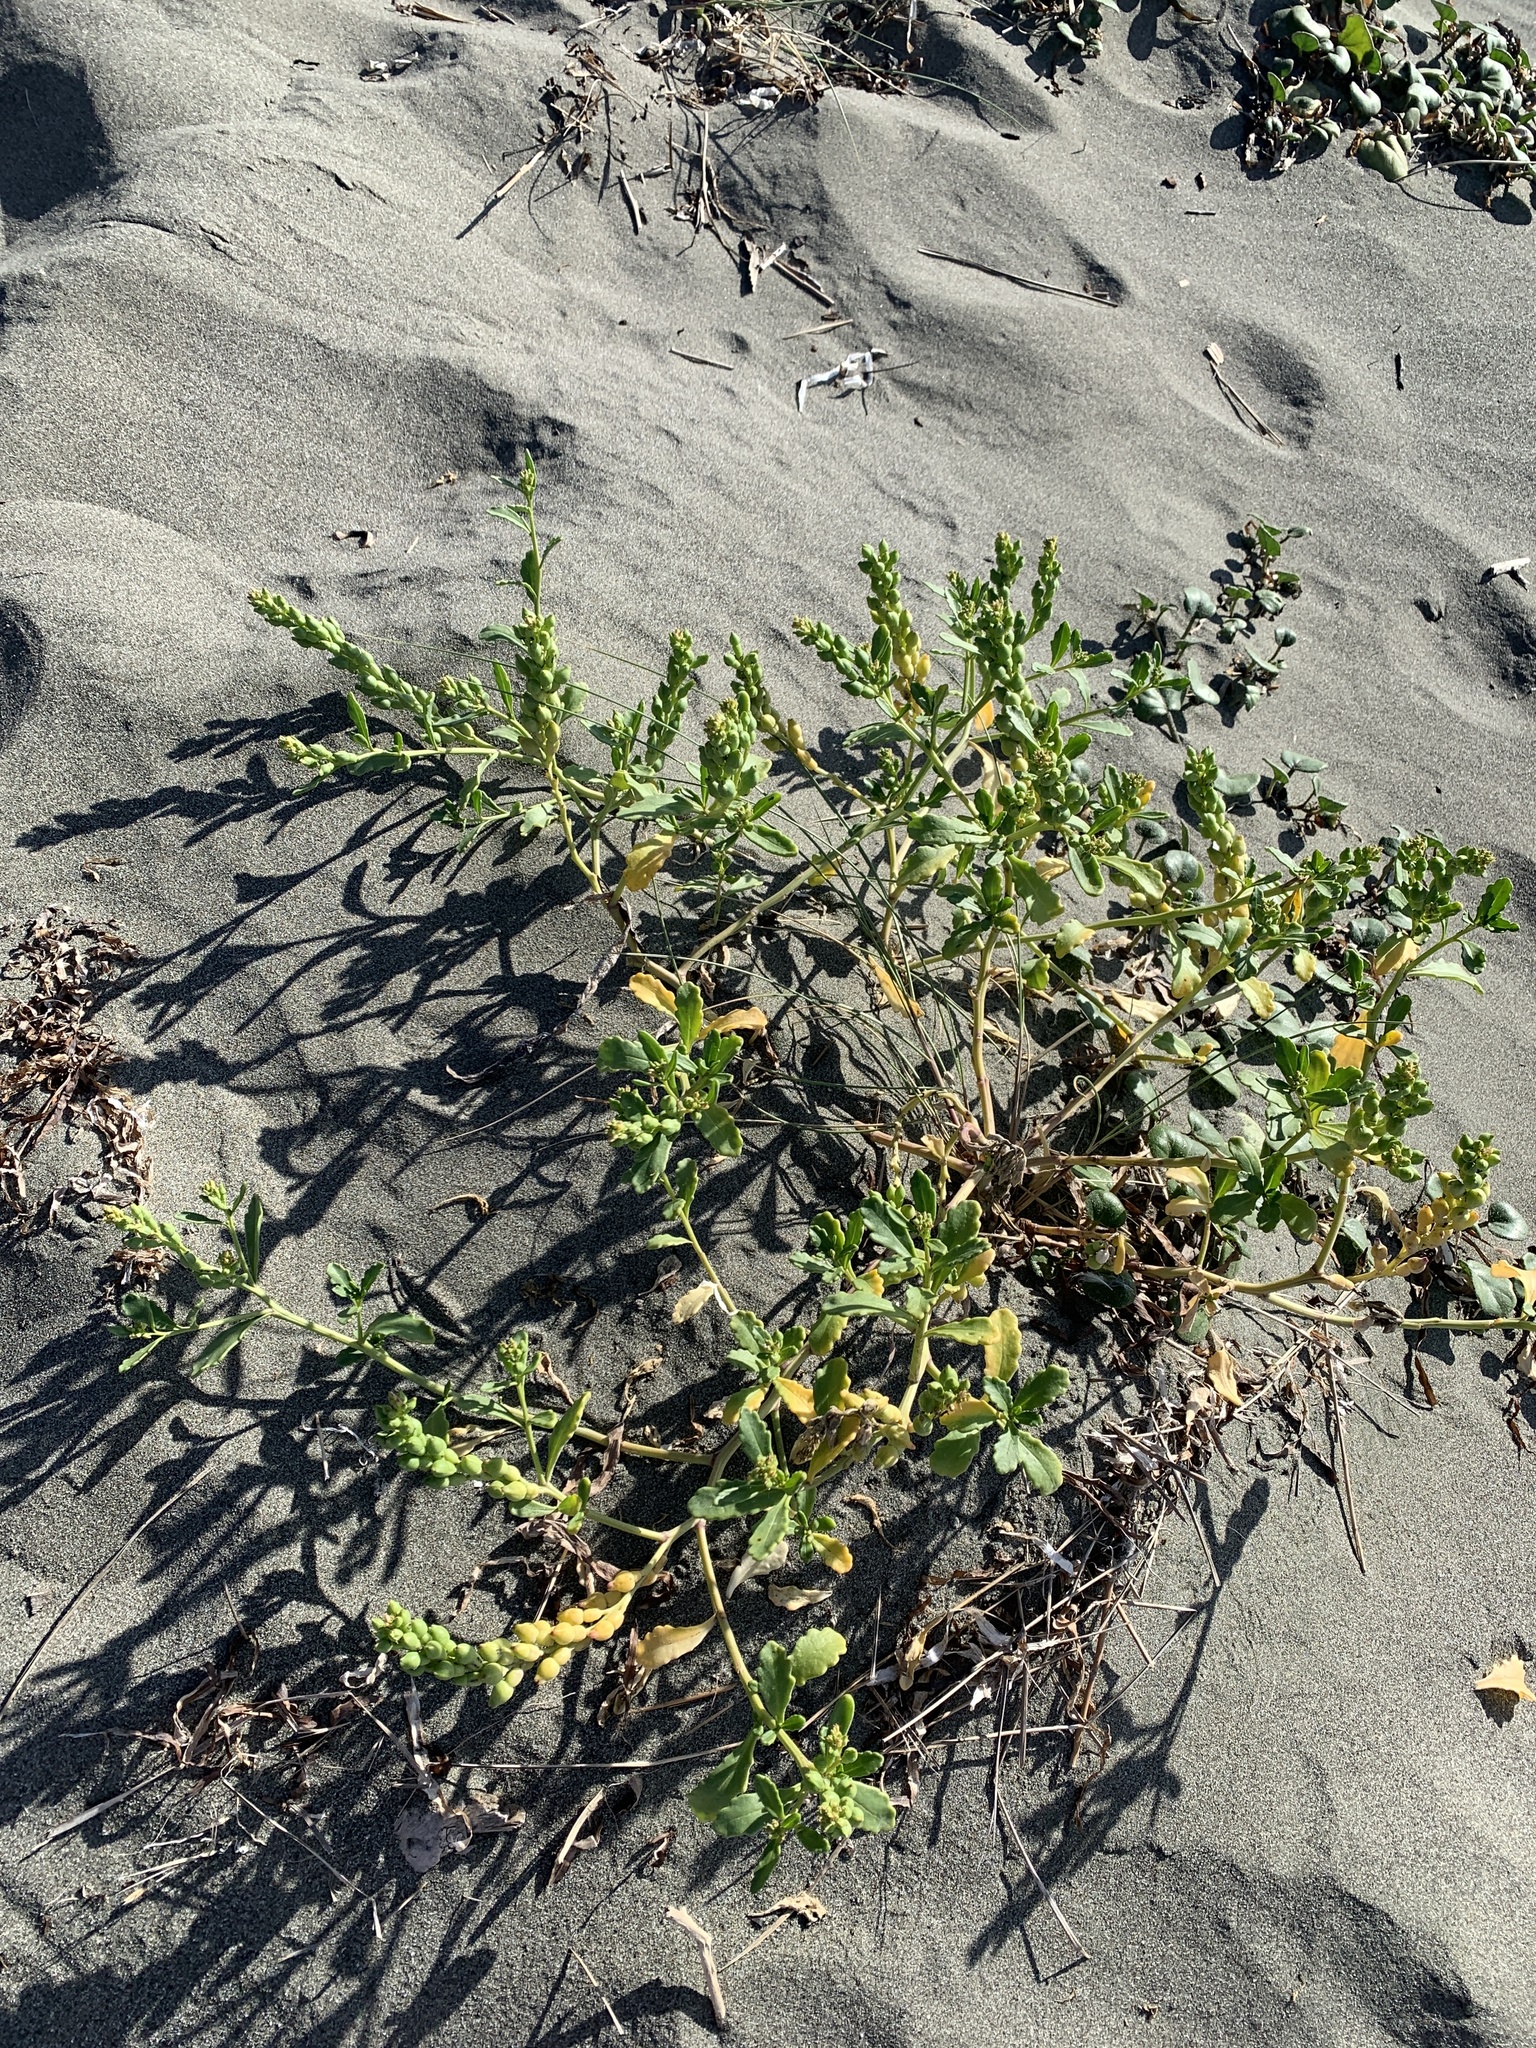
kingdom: Plantae
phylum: Tracheophyta
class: Magnoliopsida
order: Brassicales
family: Brassicaceae
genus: Cakile
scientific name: Cakile edentula
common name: American sea rocket
